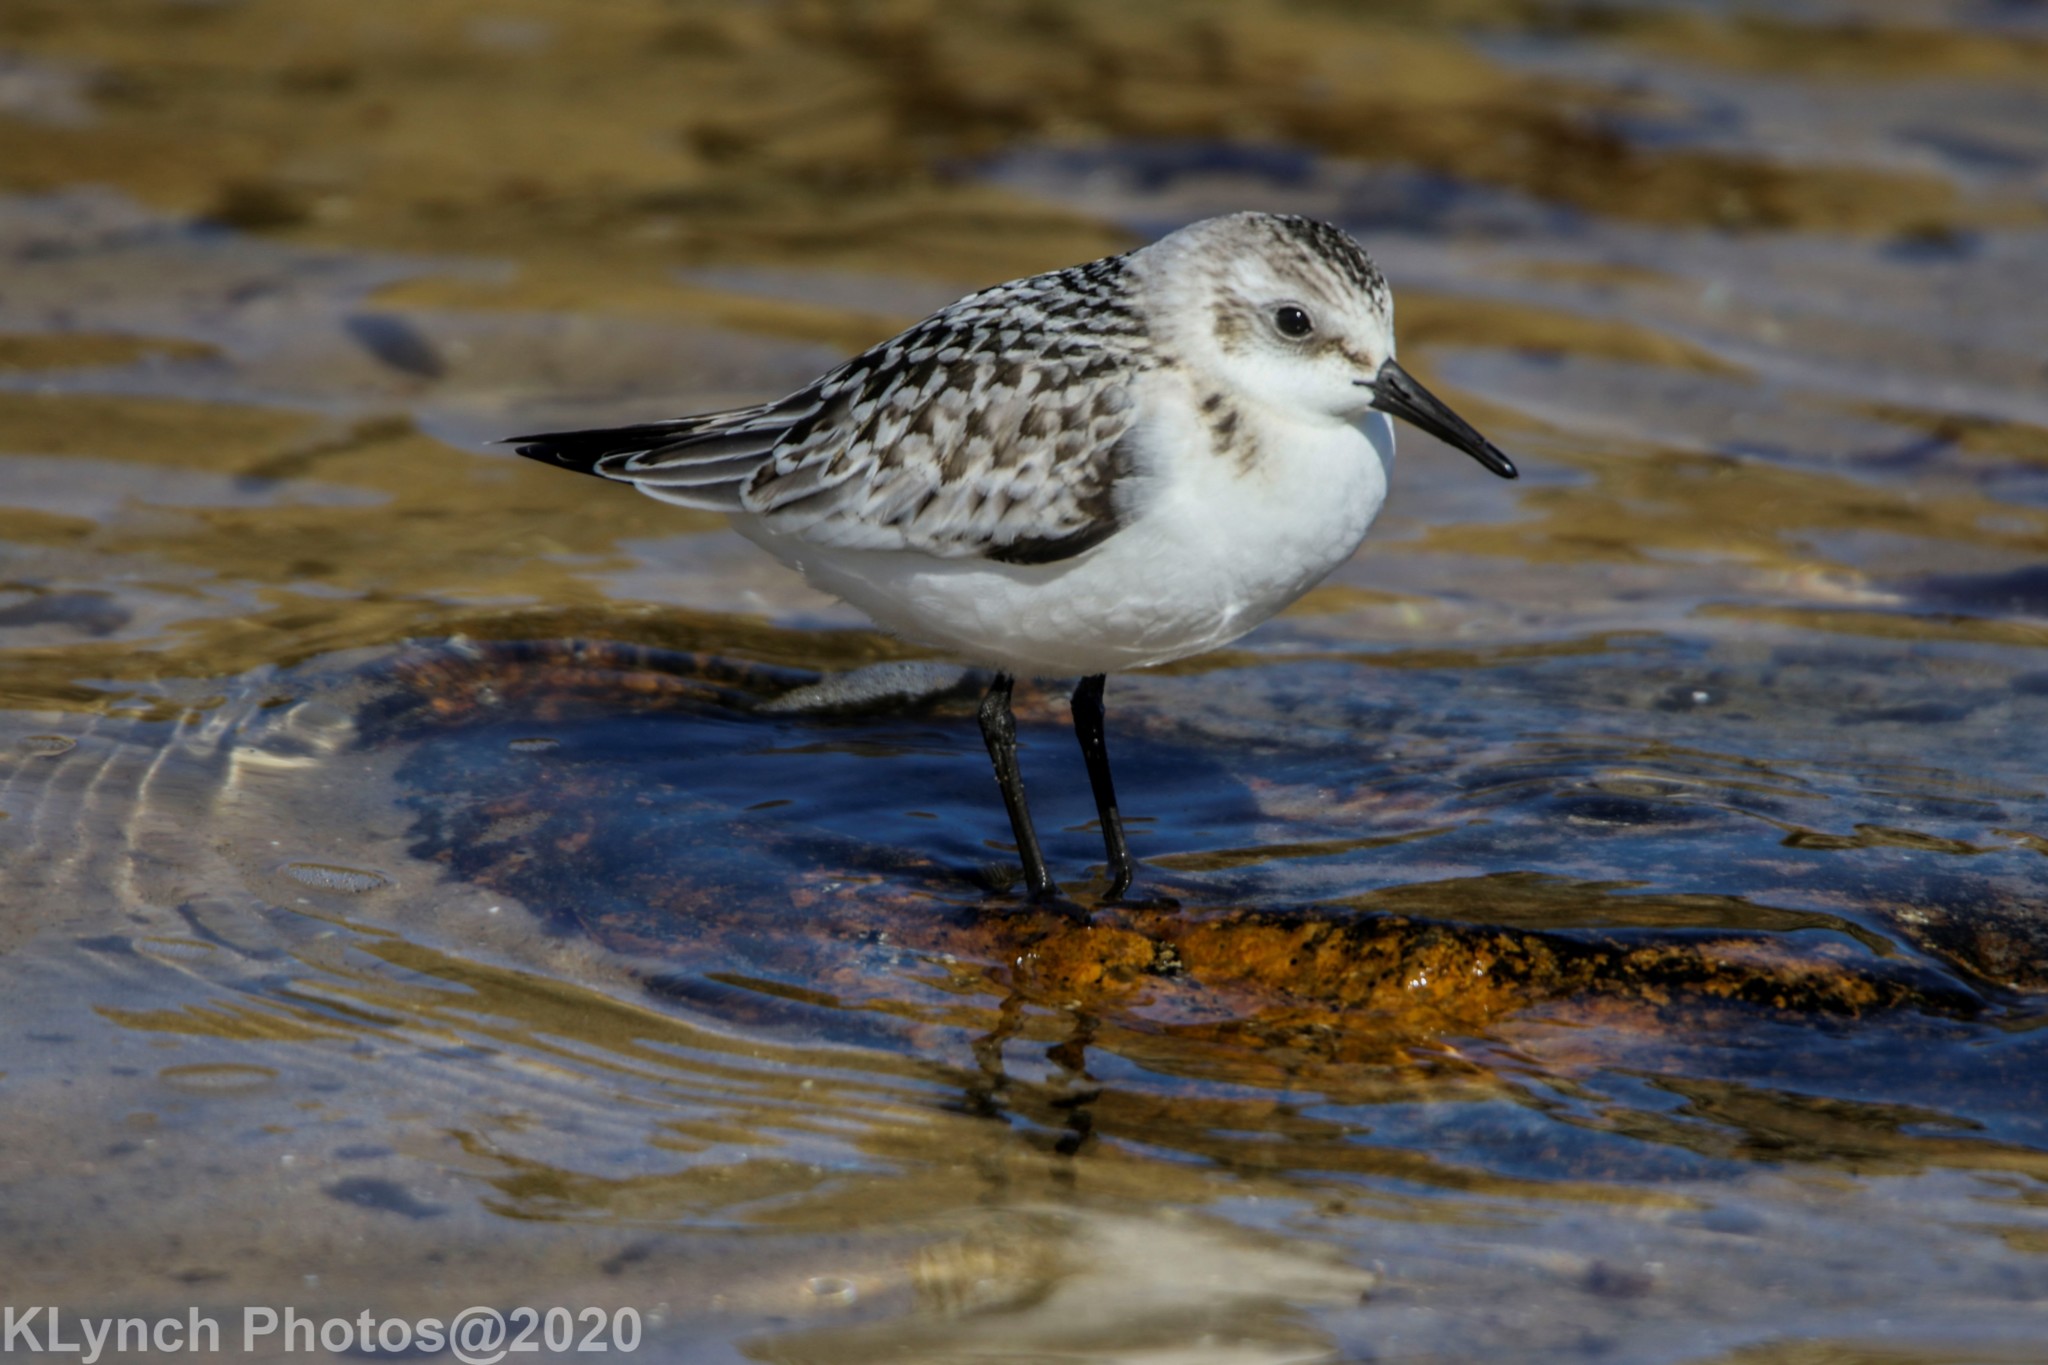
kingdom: Animalia
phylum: Chordata
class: Aves
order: Charadriiformes
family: Scolopacidae
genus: Calidris
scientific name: Calidris alba
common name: Sanderling
